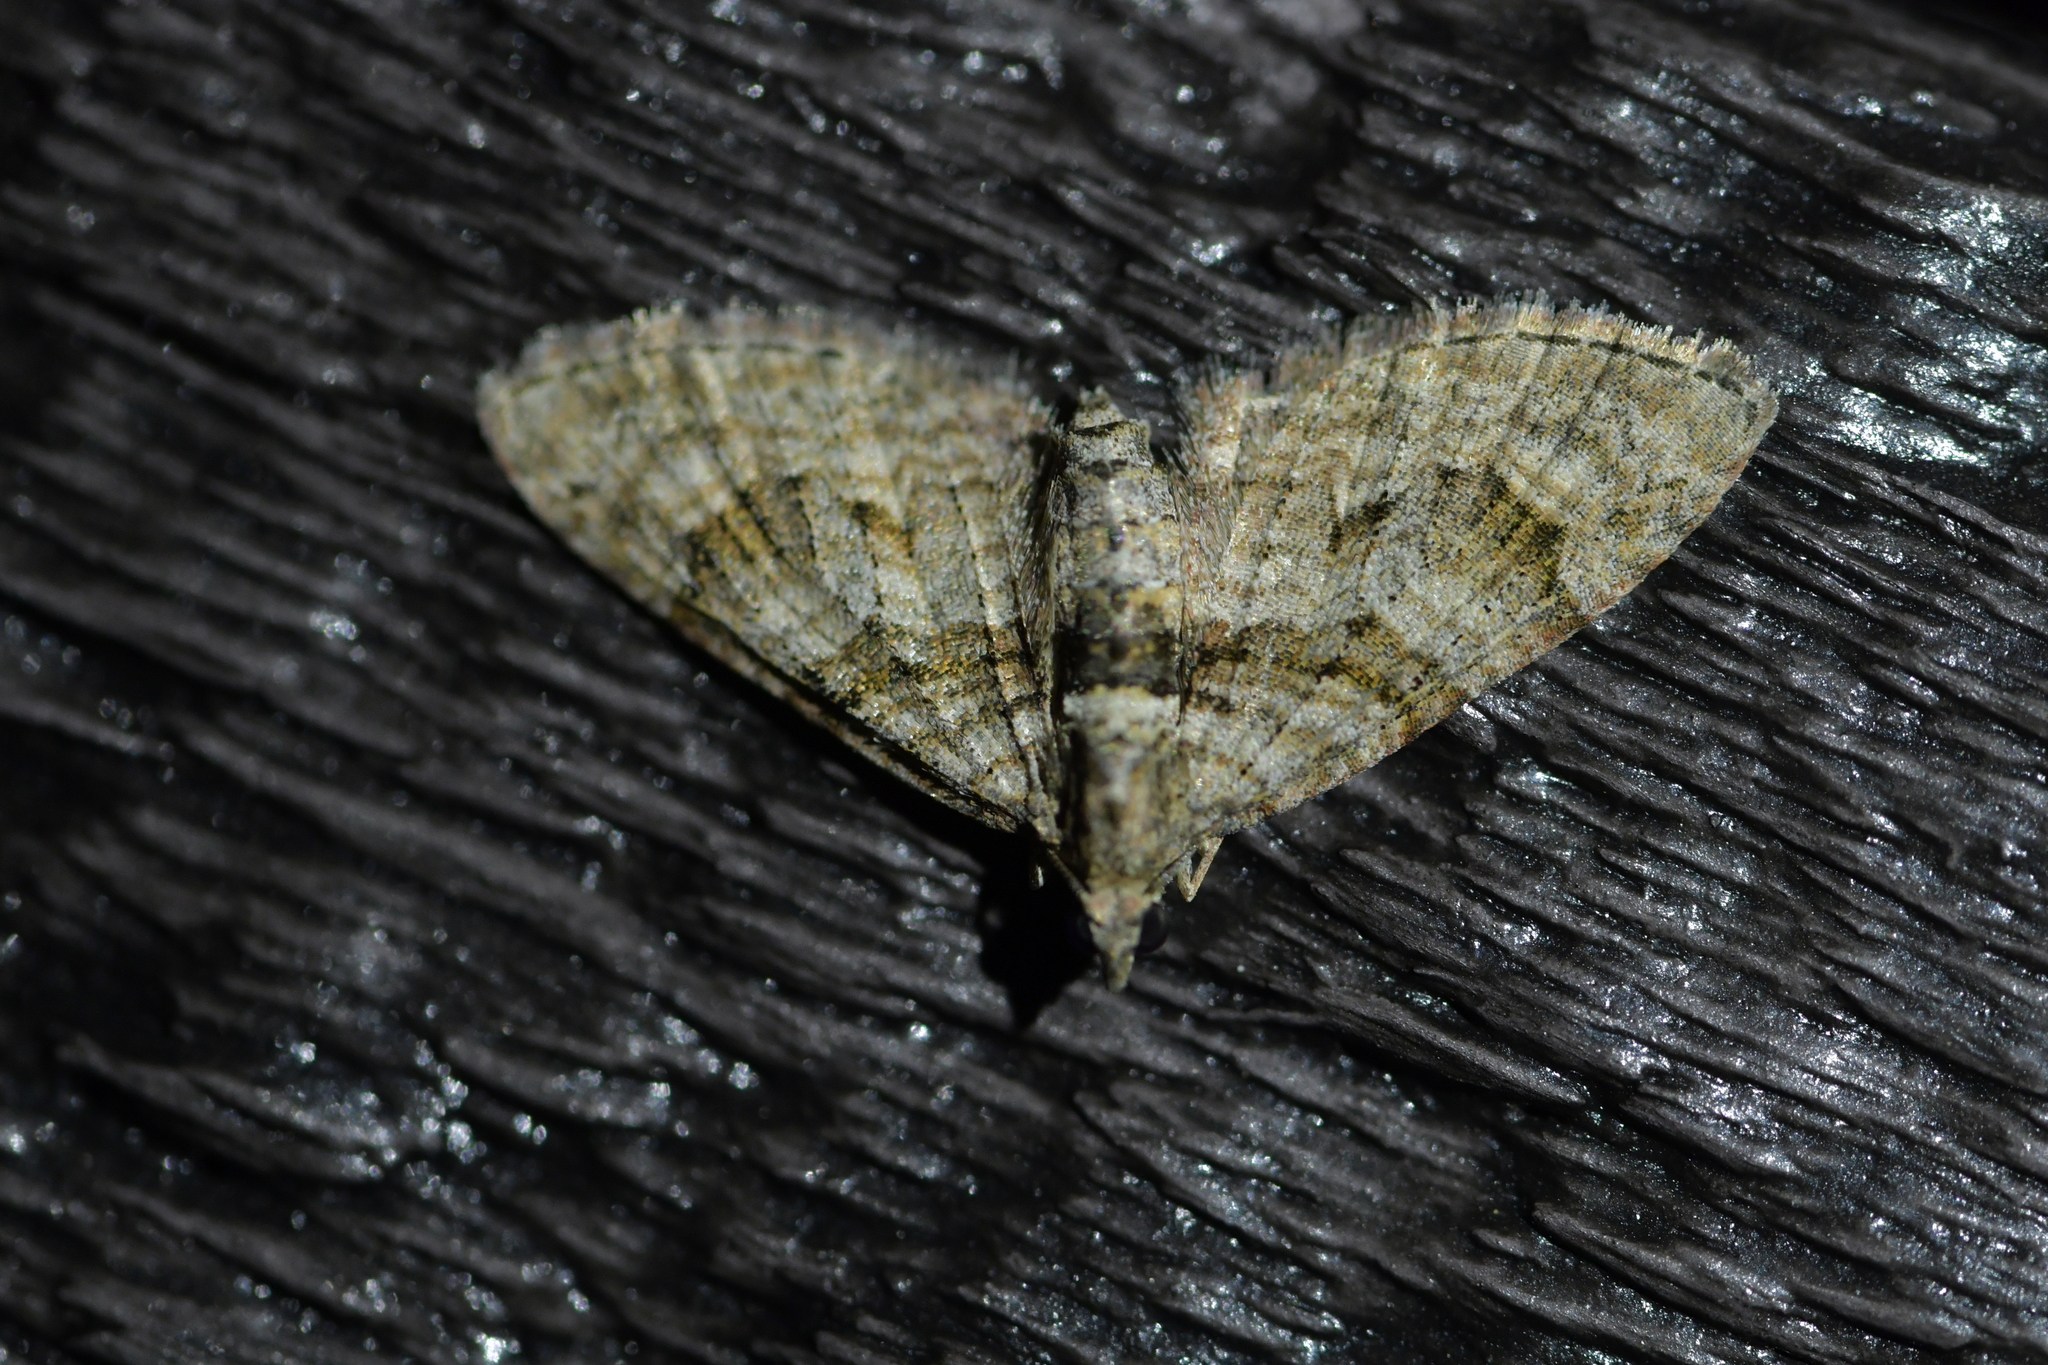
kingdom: Animalia
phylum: Arthropoda
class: Insecta
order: Lepidoptera
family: Geometridae
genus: Phrissogonus
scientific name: Phrissogonus laticostata
